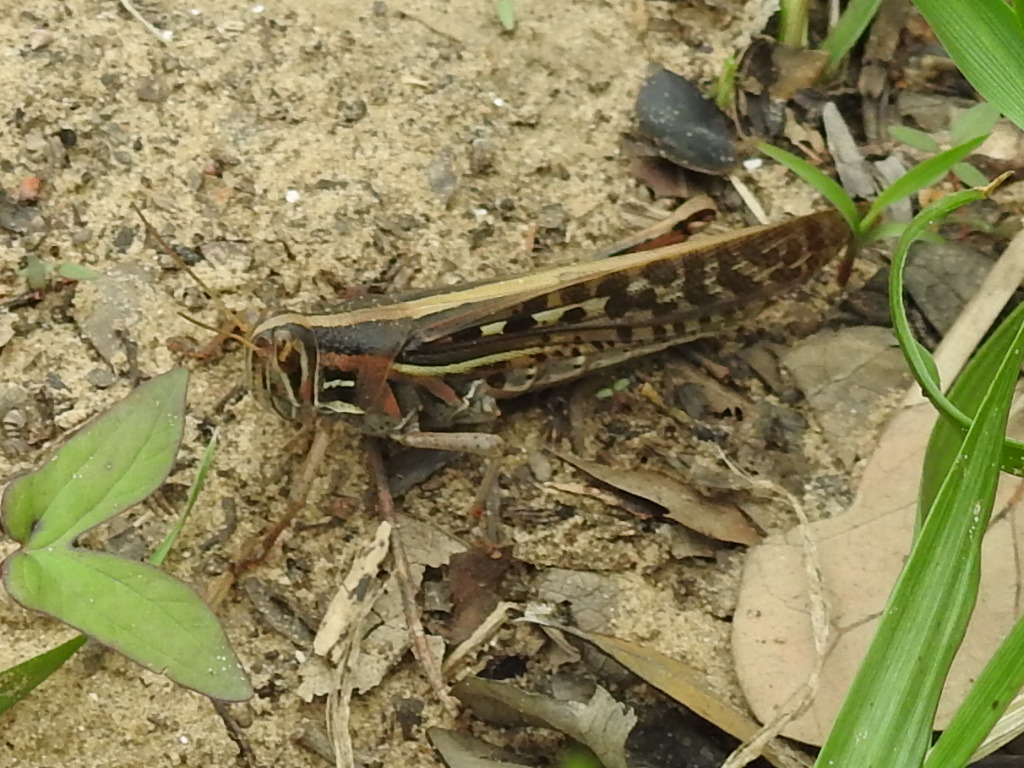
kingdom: Animalia
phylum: Arthropoda
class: Insecta
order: Orthoptera
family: Acrididae
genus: Schistocerca
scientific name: Schistocerca americana
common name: American bird locust
